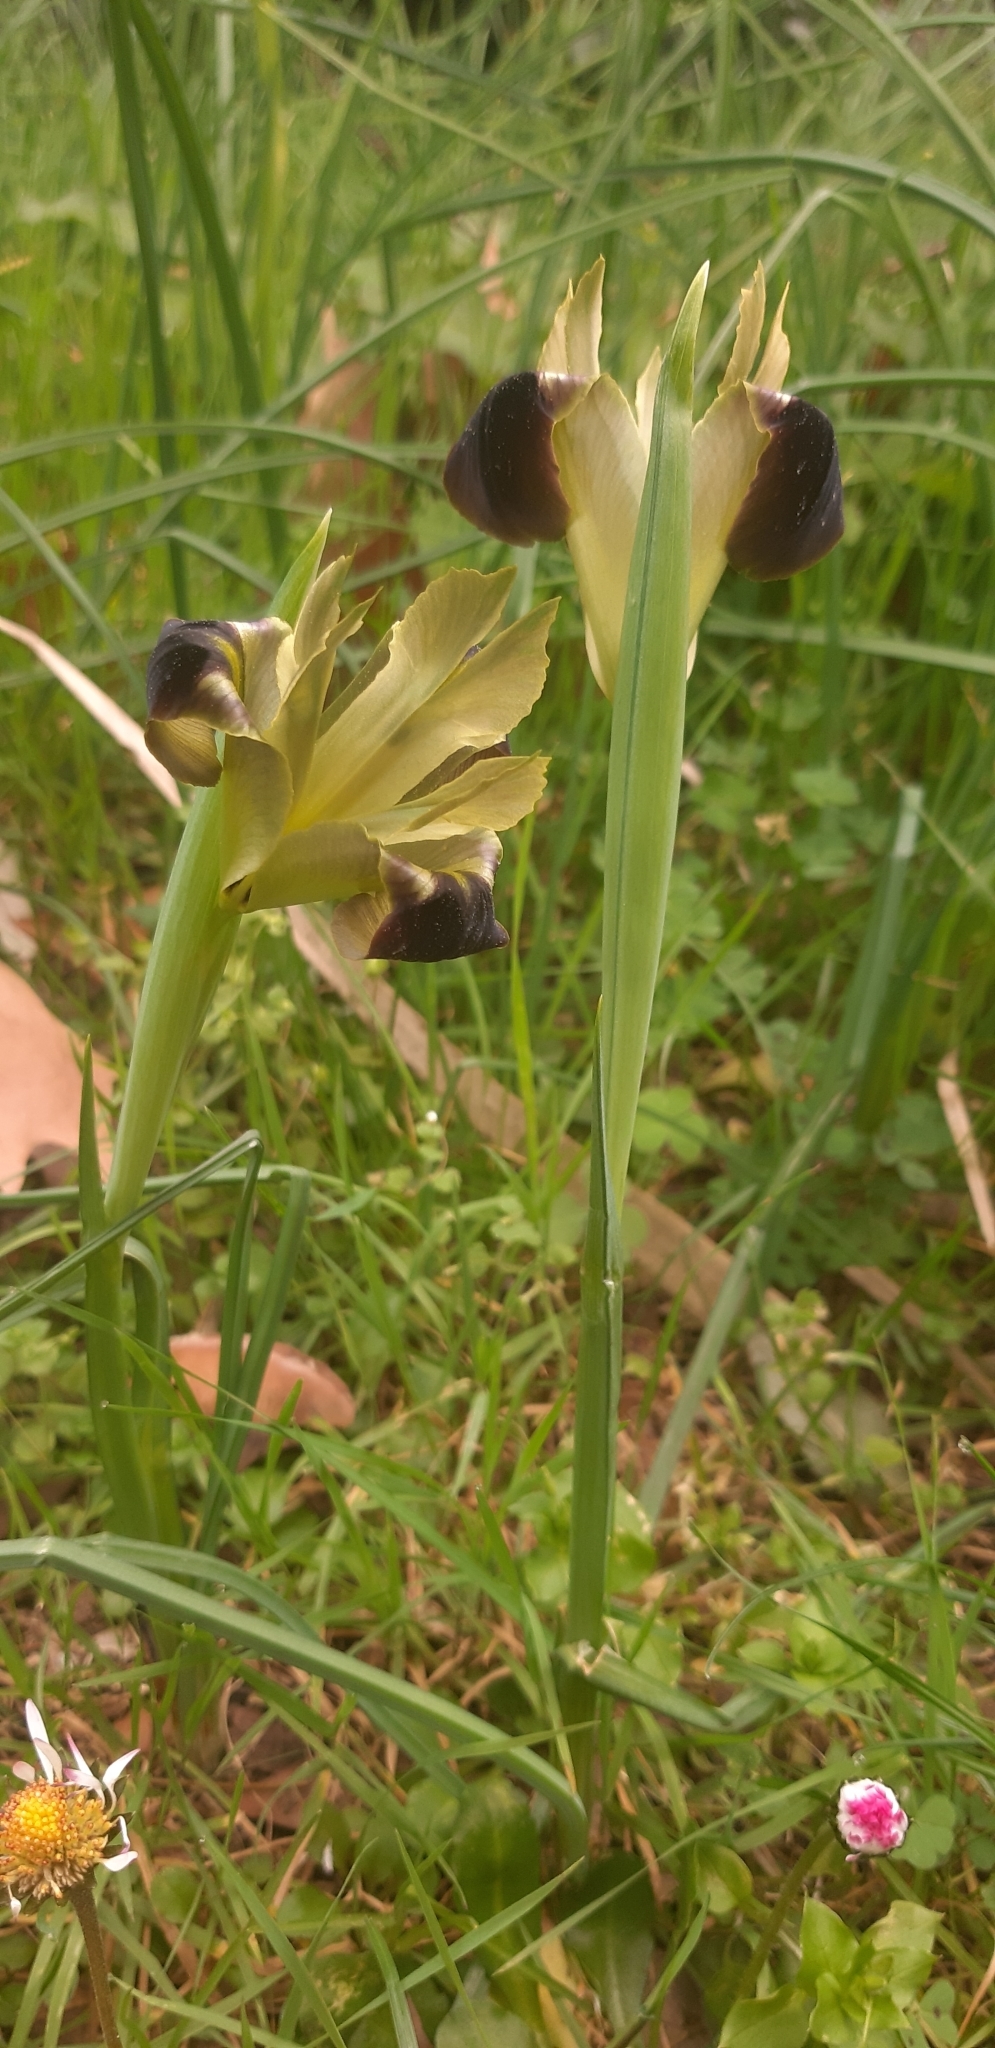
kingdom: Plantae
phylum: Tracheophyta
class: Liliopsida
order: Asparagales
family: Iridaceae
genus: Iris
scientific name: Iris tuberosa
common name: Snake's-head iris
